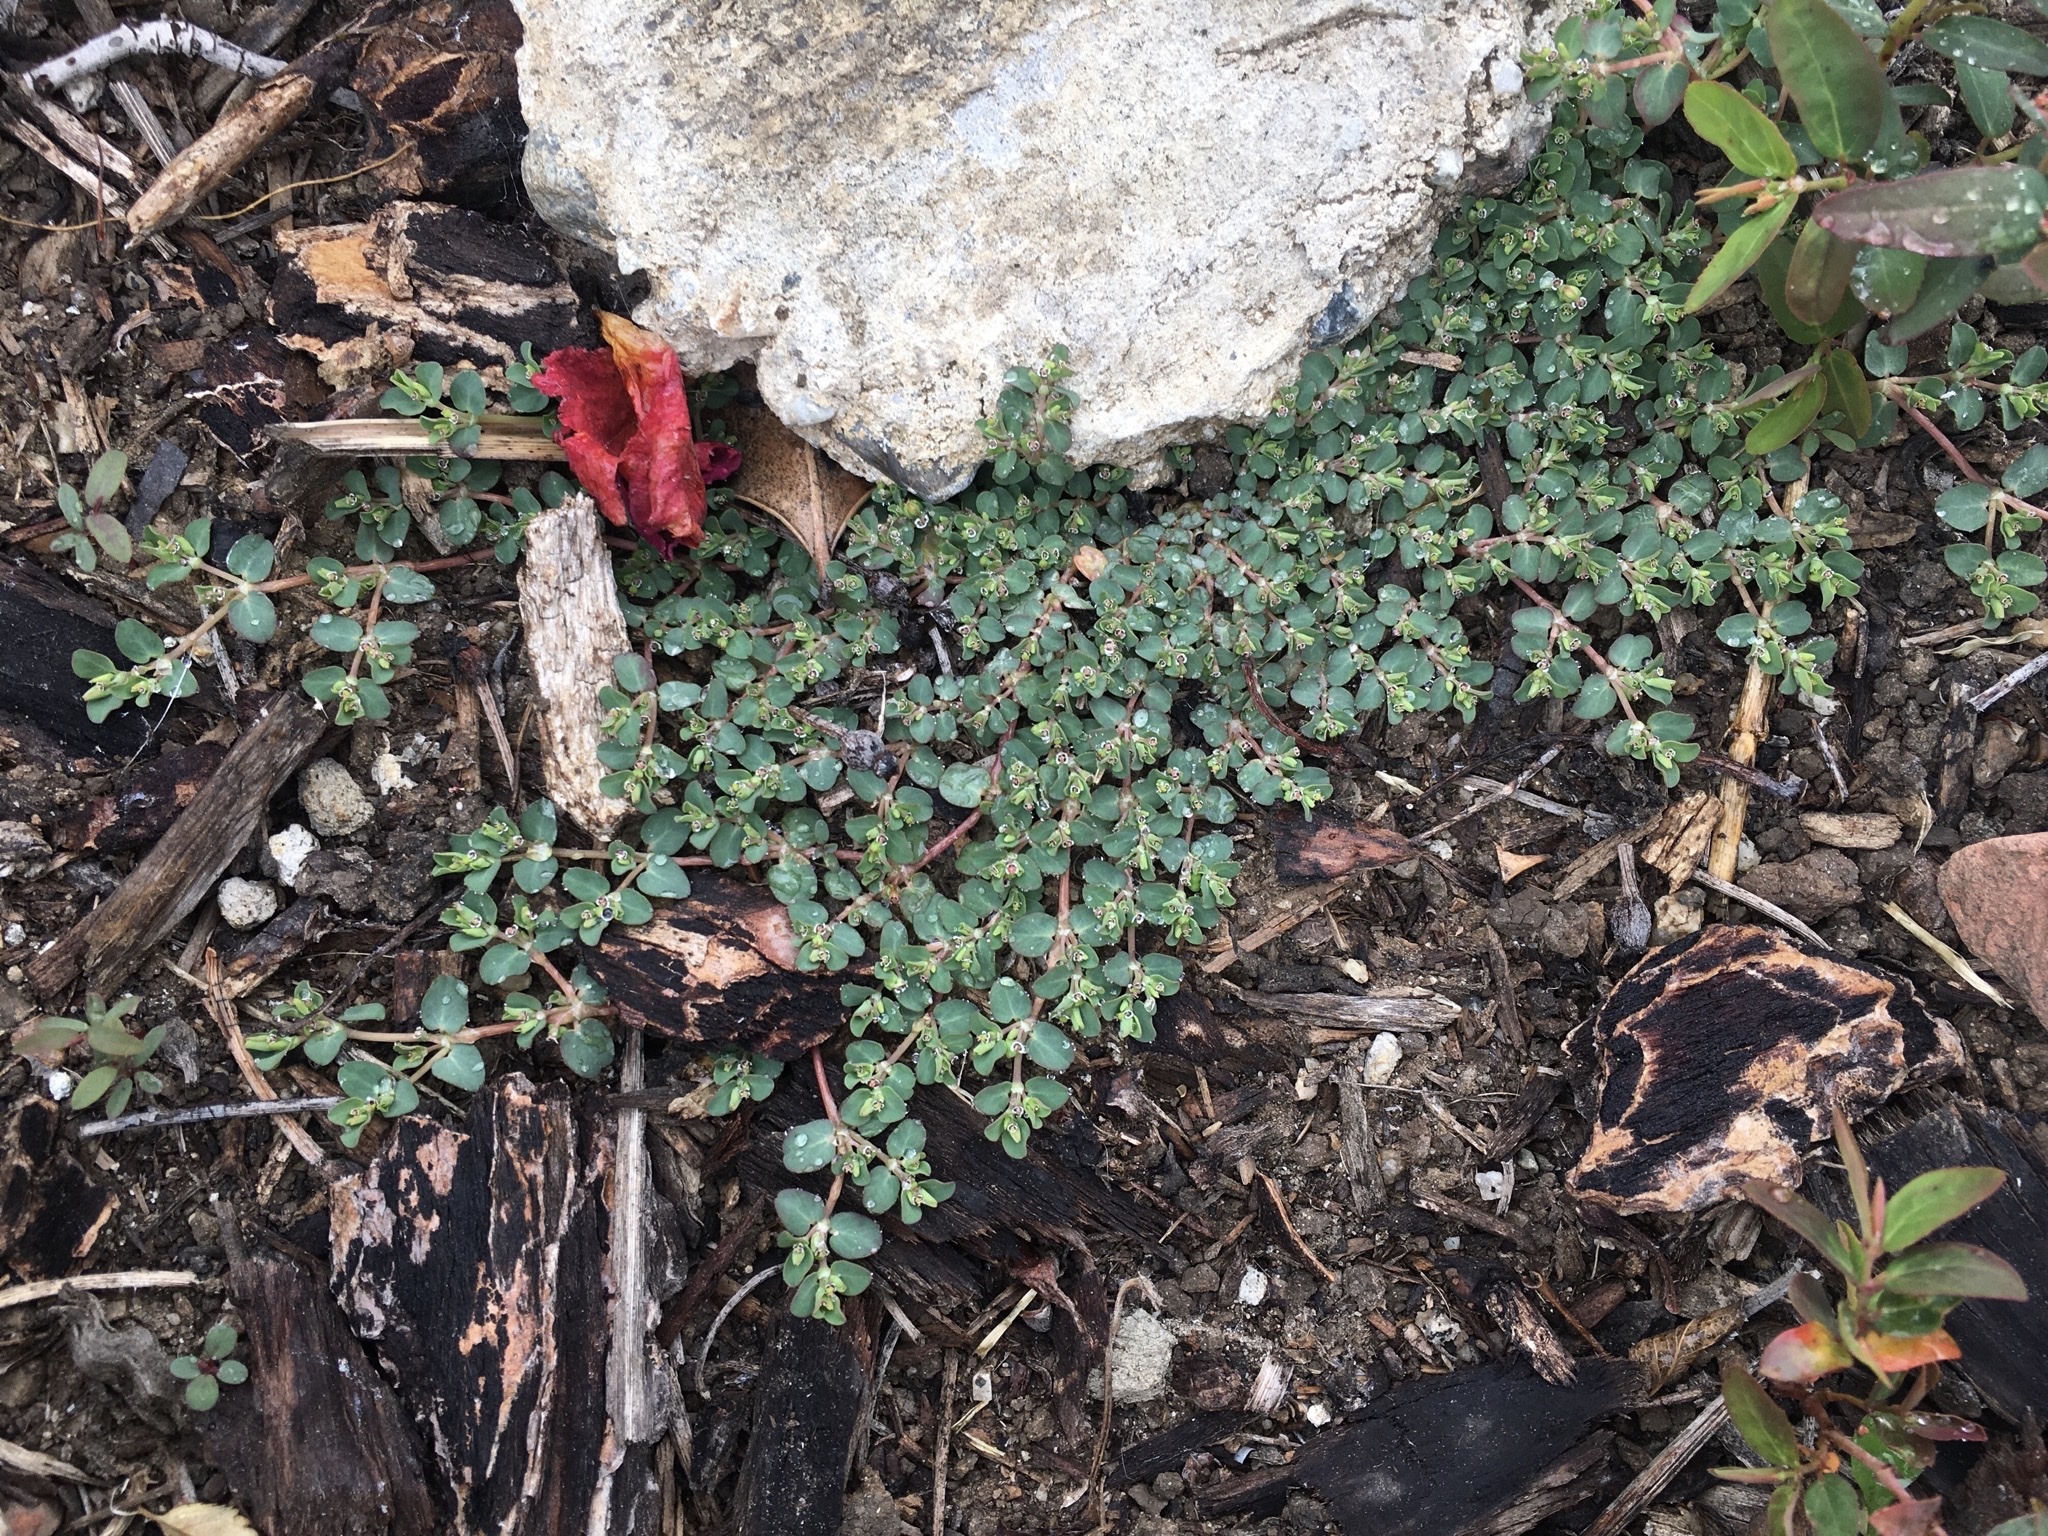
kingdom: Plantae
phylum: Tracheophyta
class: Magnoliopsida
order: Malpighiales
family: Euphorbiaceae
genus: Euphorbia
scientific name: Euphorbia serpens
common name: Matted sandmat
